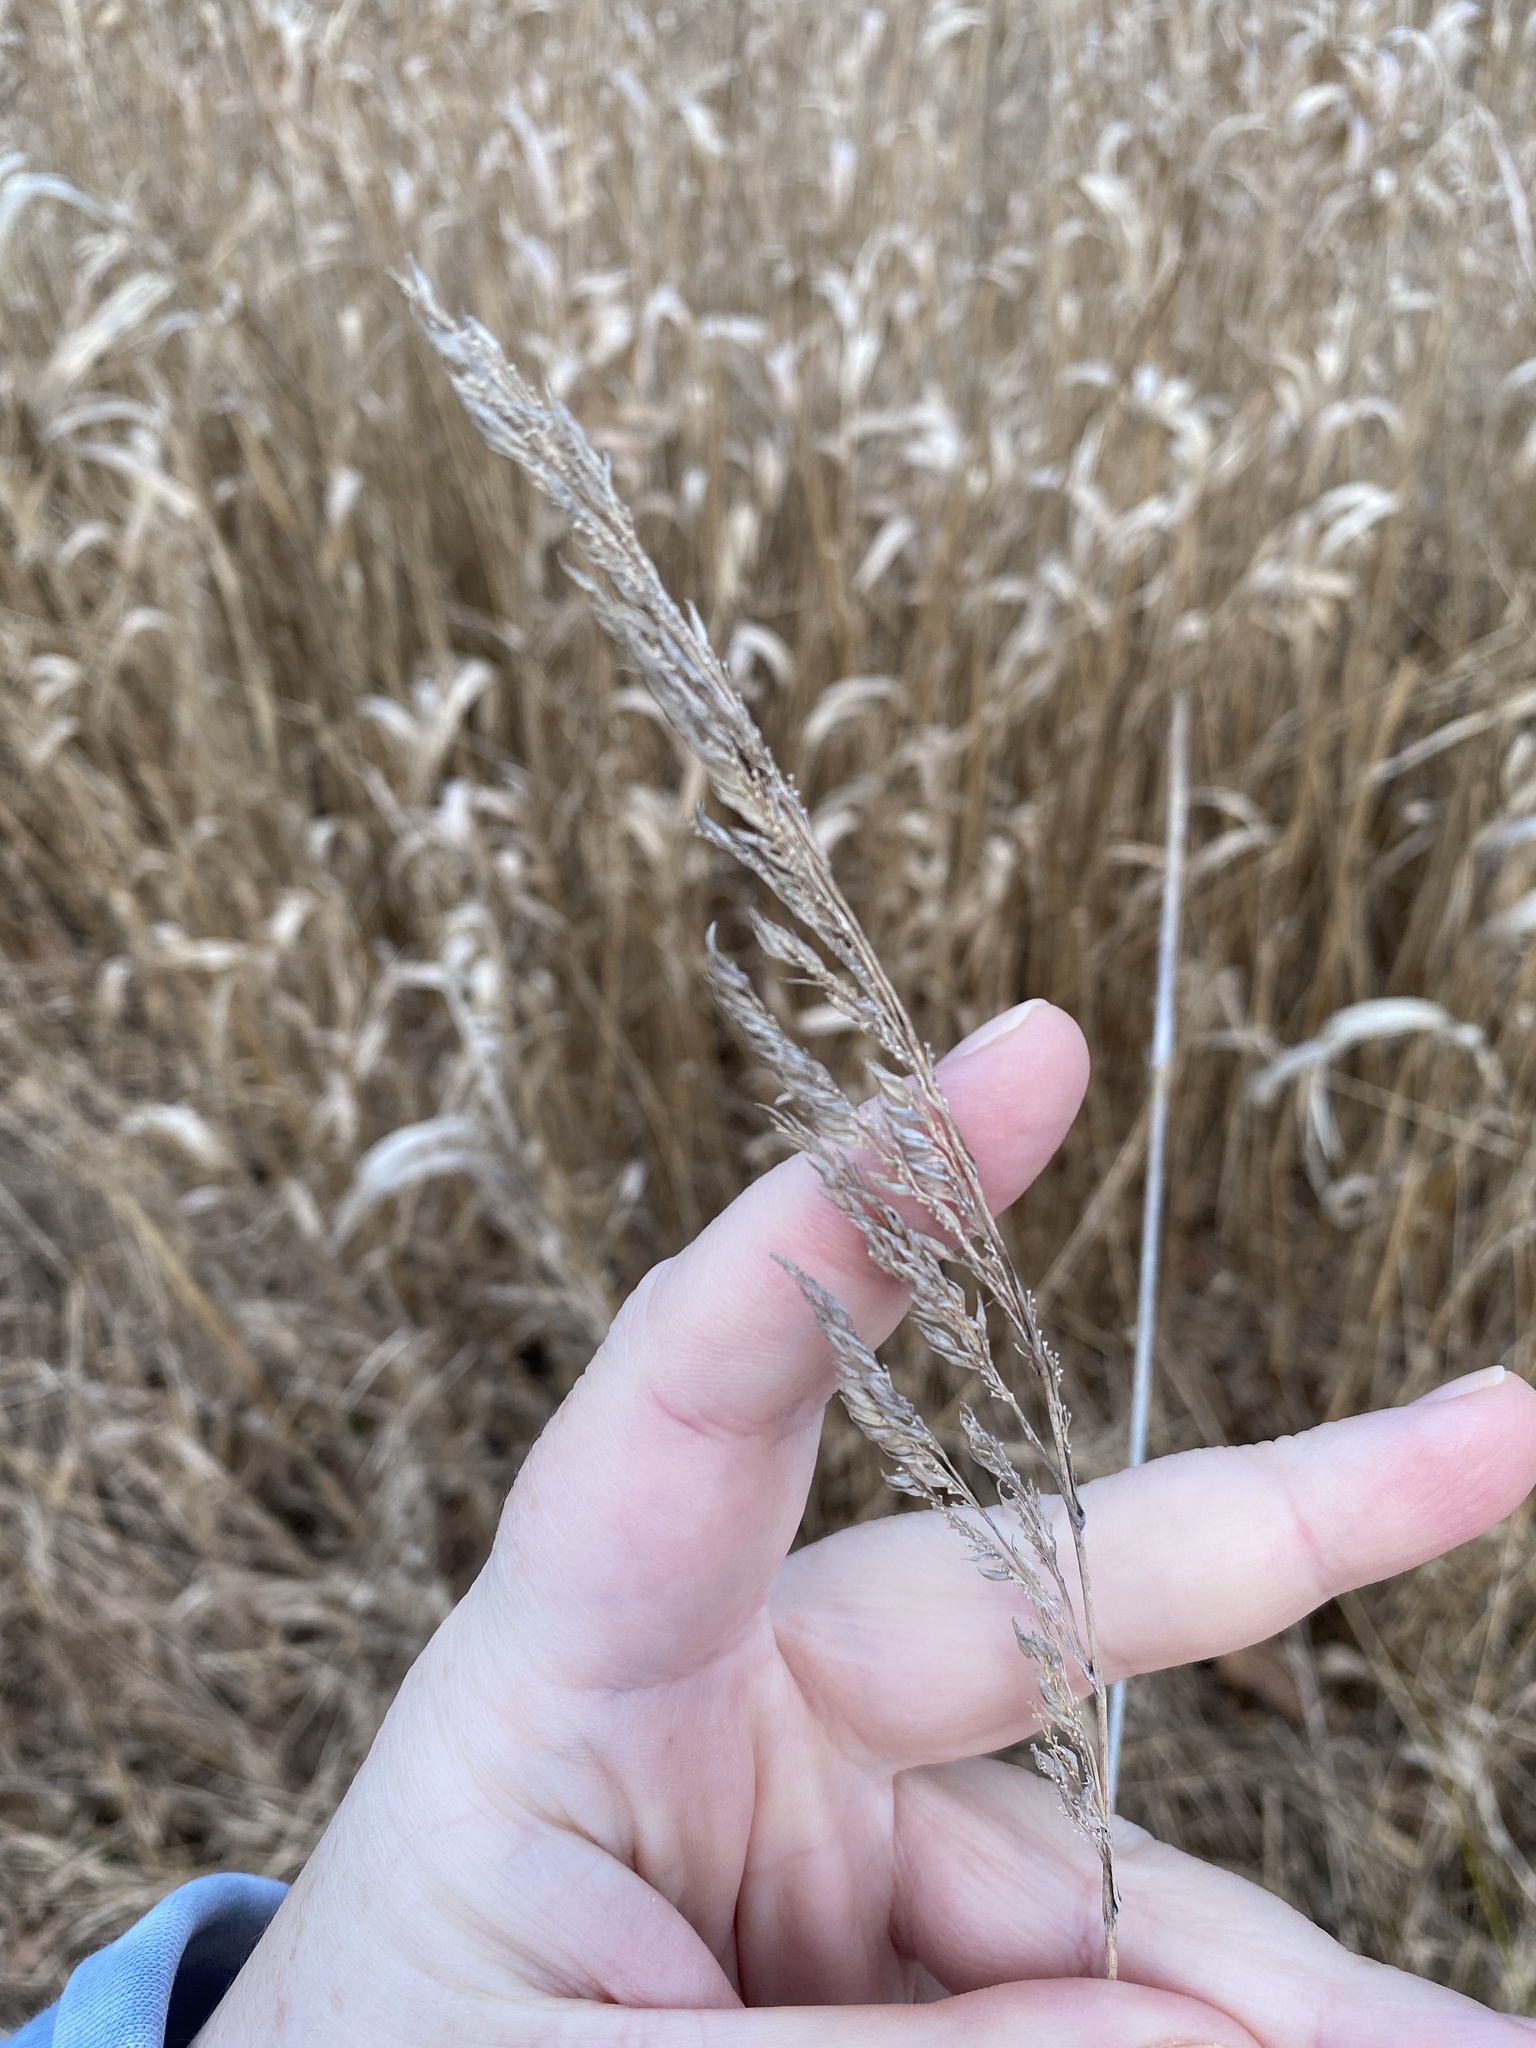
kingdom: Plantae
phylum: Tracheophyta
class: Liliopsida
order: Poales
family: Poaceae
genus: Phalaris
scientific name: Phalaris arundinacea
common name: Reed canary-grass
